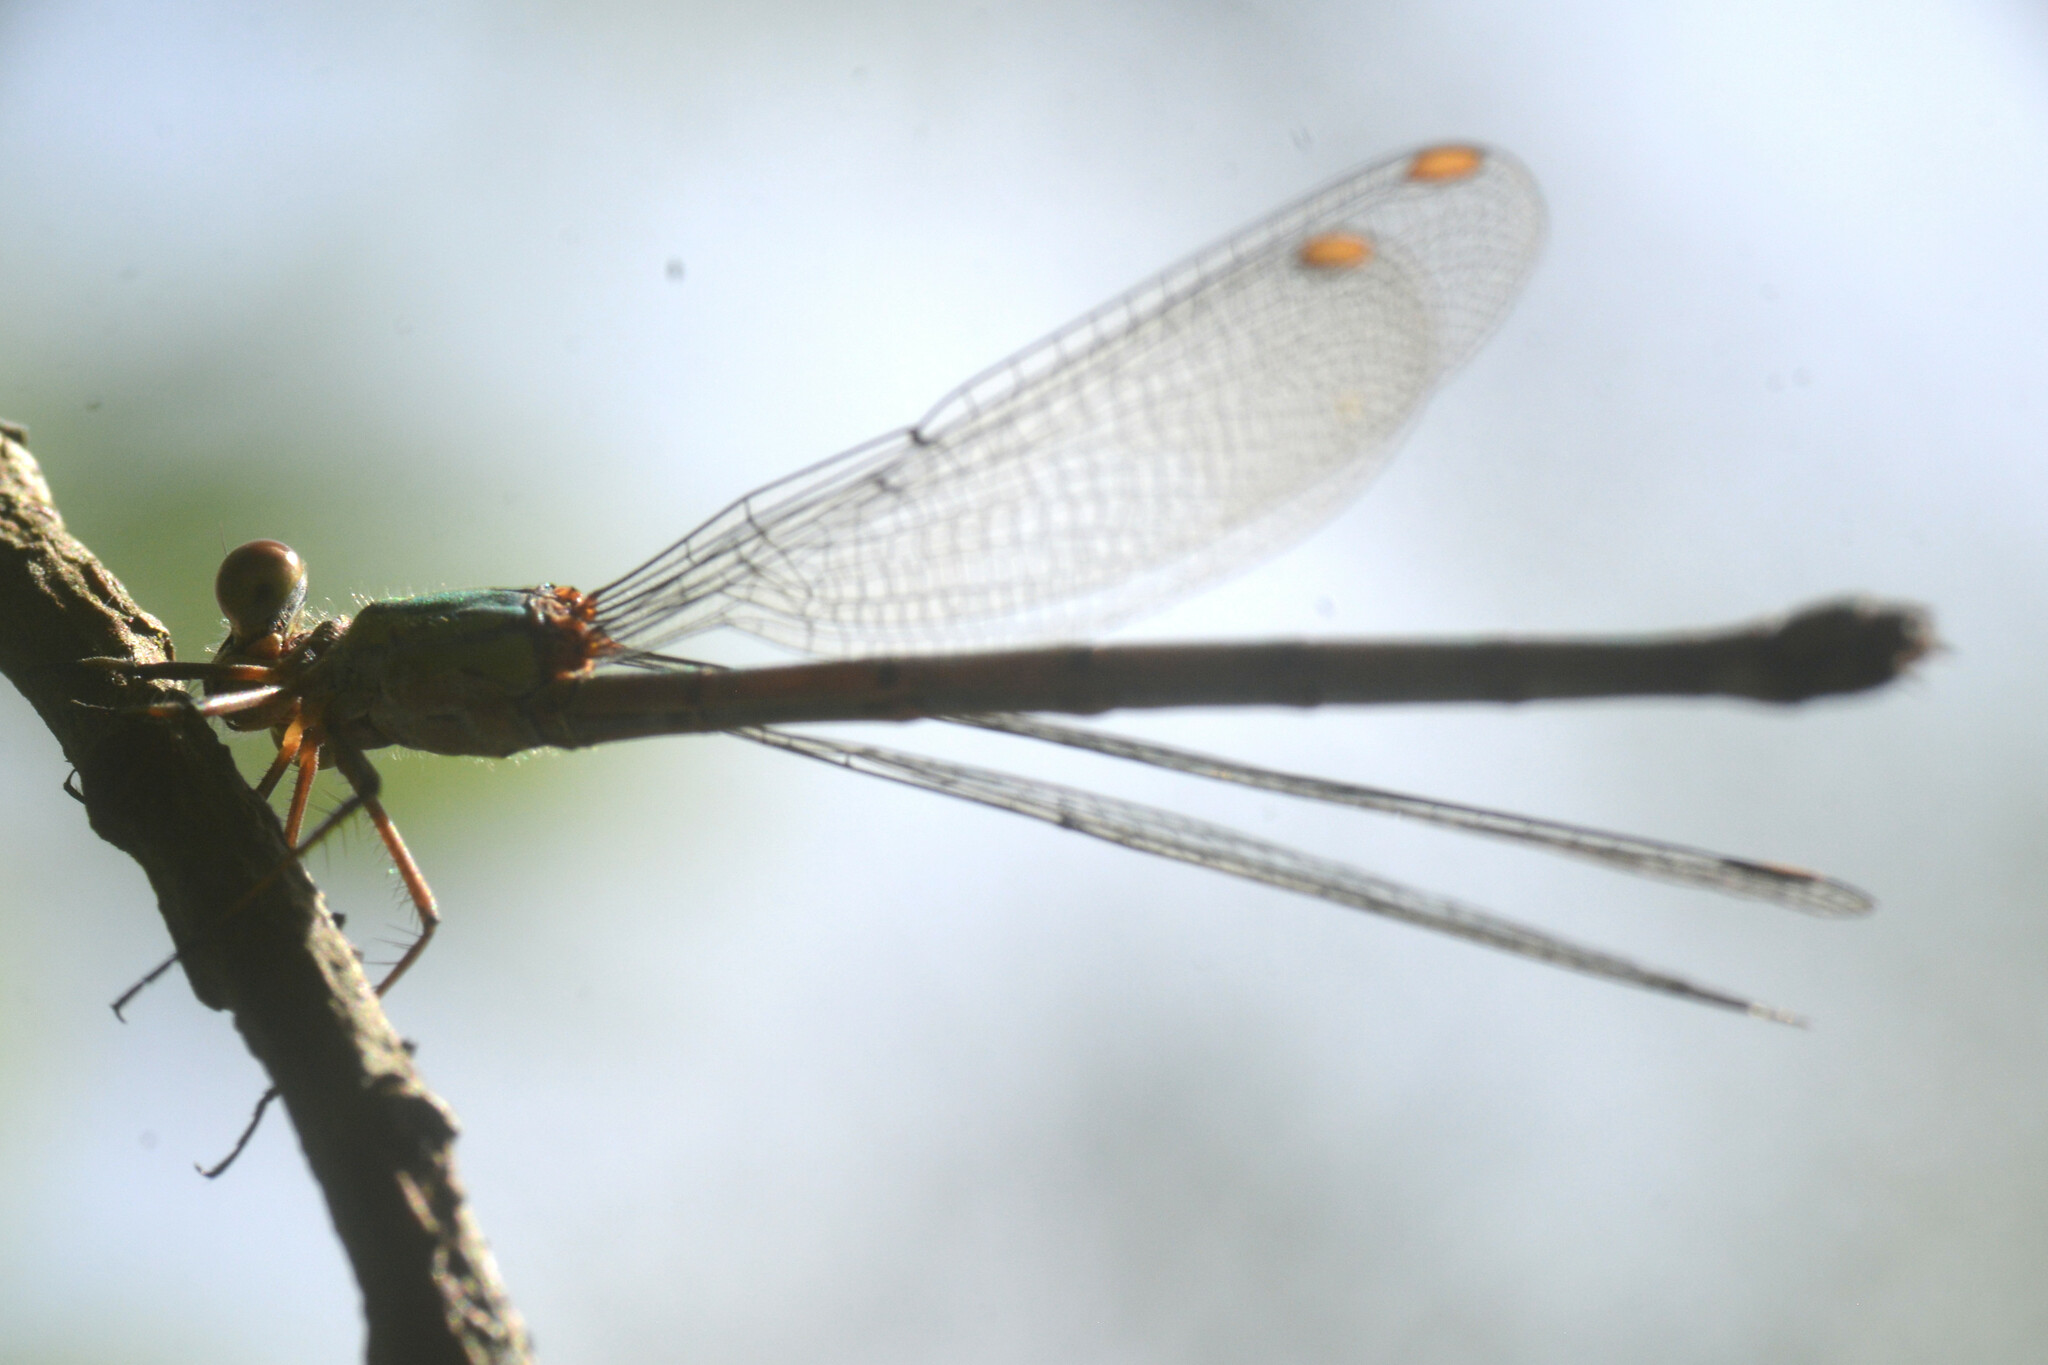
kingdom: Animalia
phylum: Arthropoda
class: Insecta
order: Odonata
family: Lestidae
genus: Chalcolestes
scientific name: Chalcolestes viridis
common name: Green emerald damselfly
